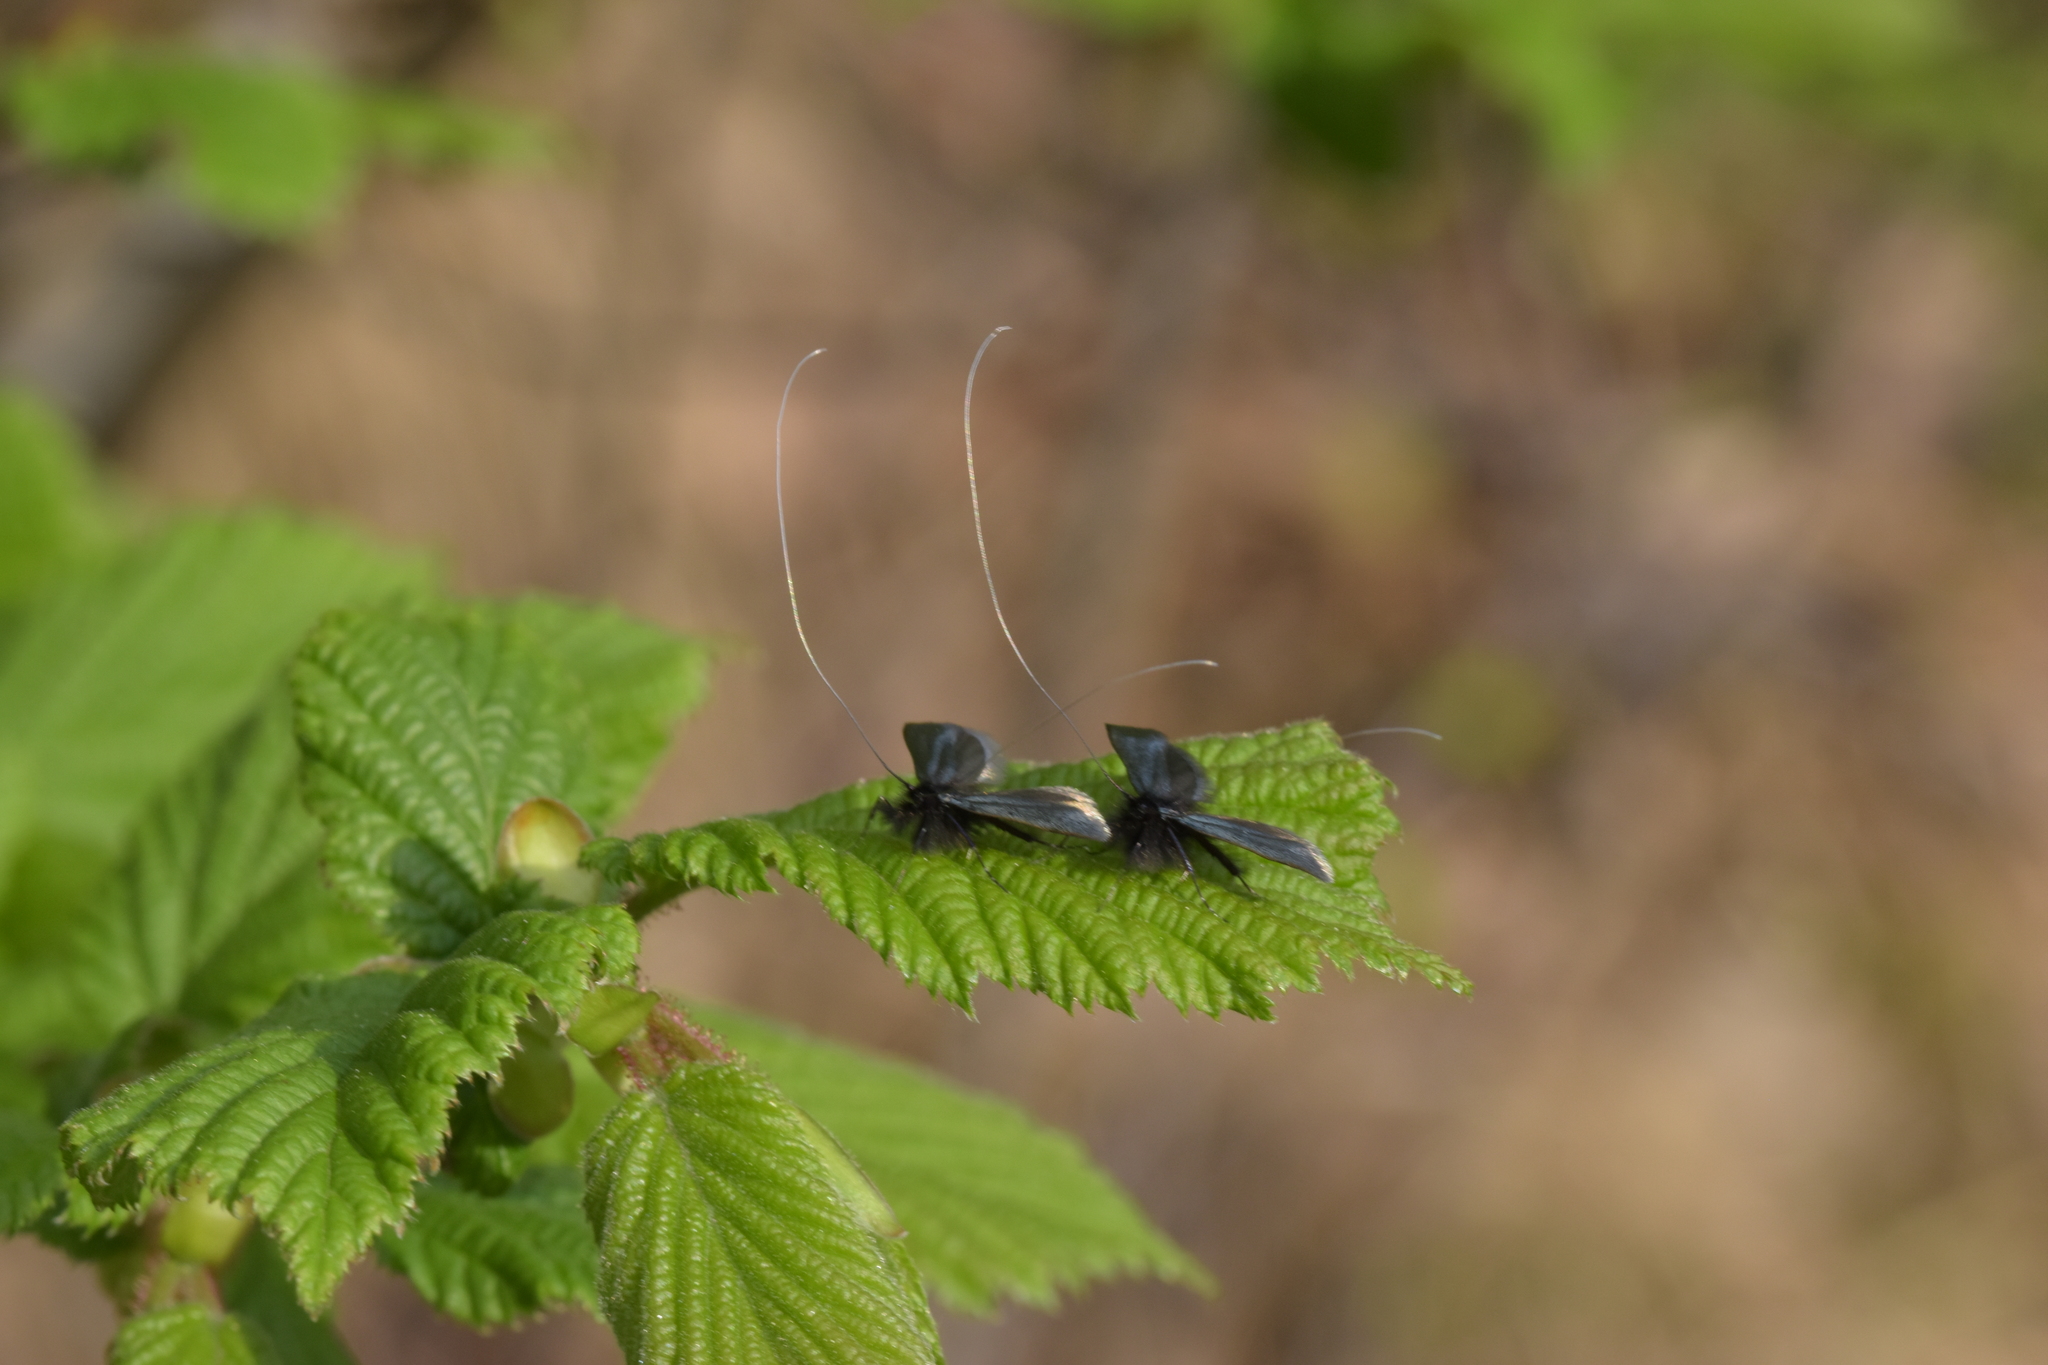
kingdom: Animalia
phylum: Arthropoda
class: Insecta
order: Lepidoptera
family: Adelidae
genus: Adela
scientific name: Adela viridella
